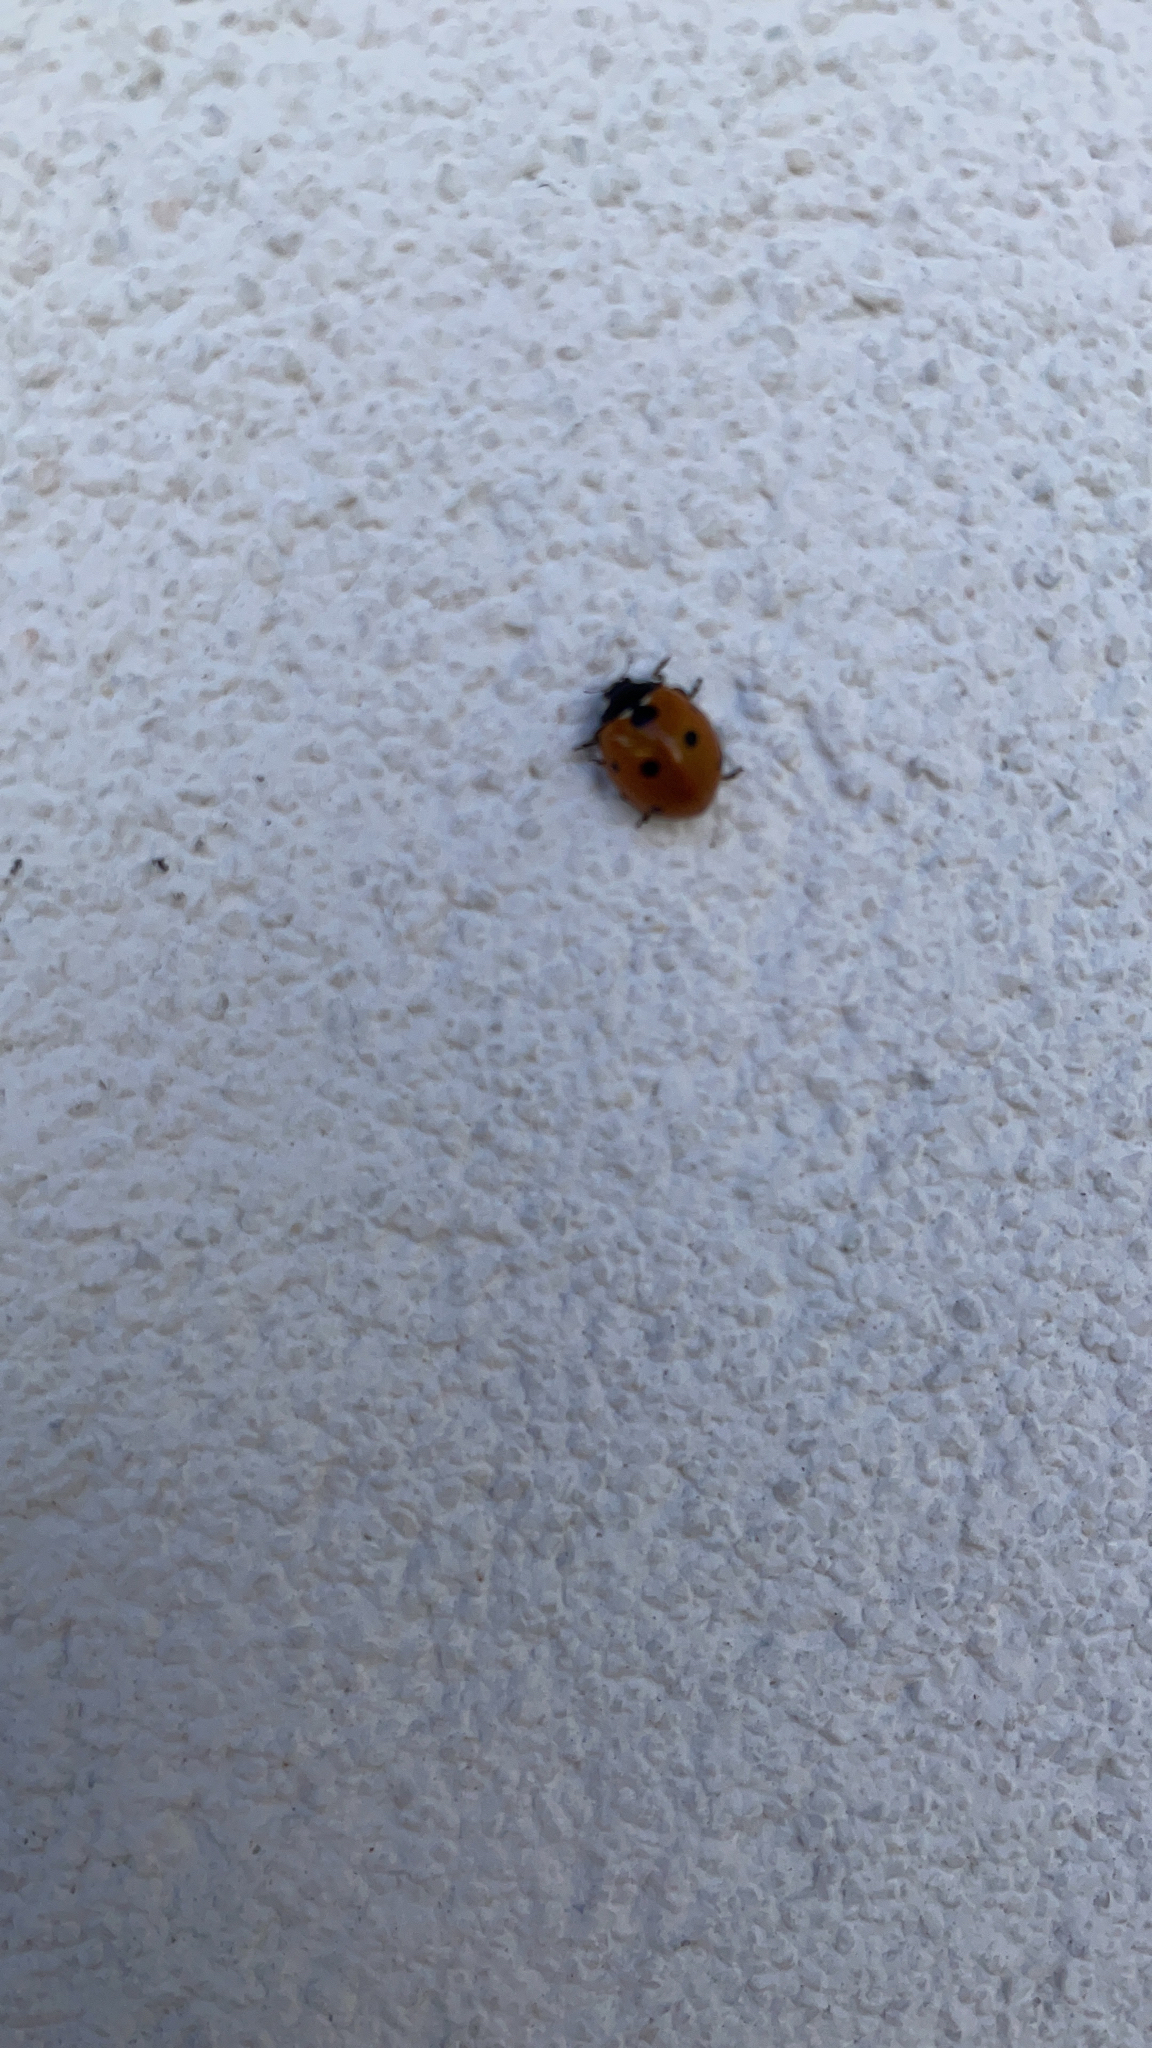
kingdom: Animalia
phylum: Arthropoda
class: Insecta
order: Coleoptera
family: Coccinellidae
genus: Coccinella
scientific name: Coccinella septempunctata
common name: Sevenspotted lady beetle
